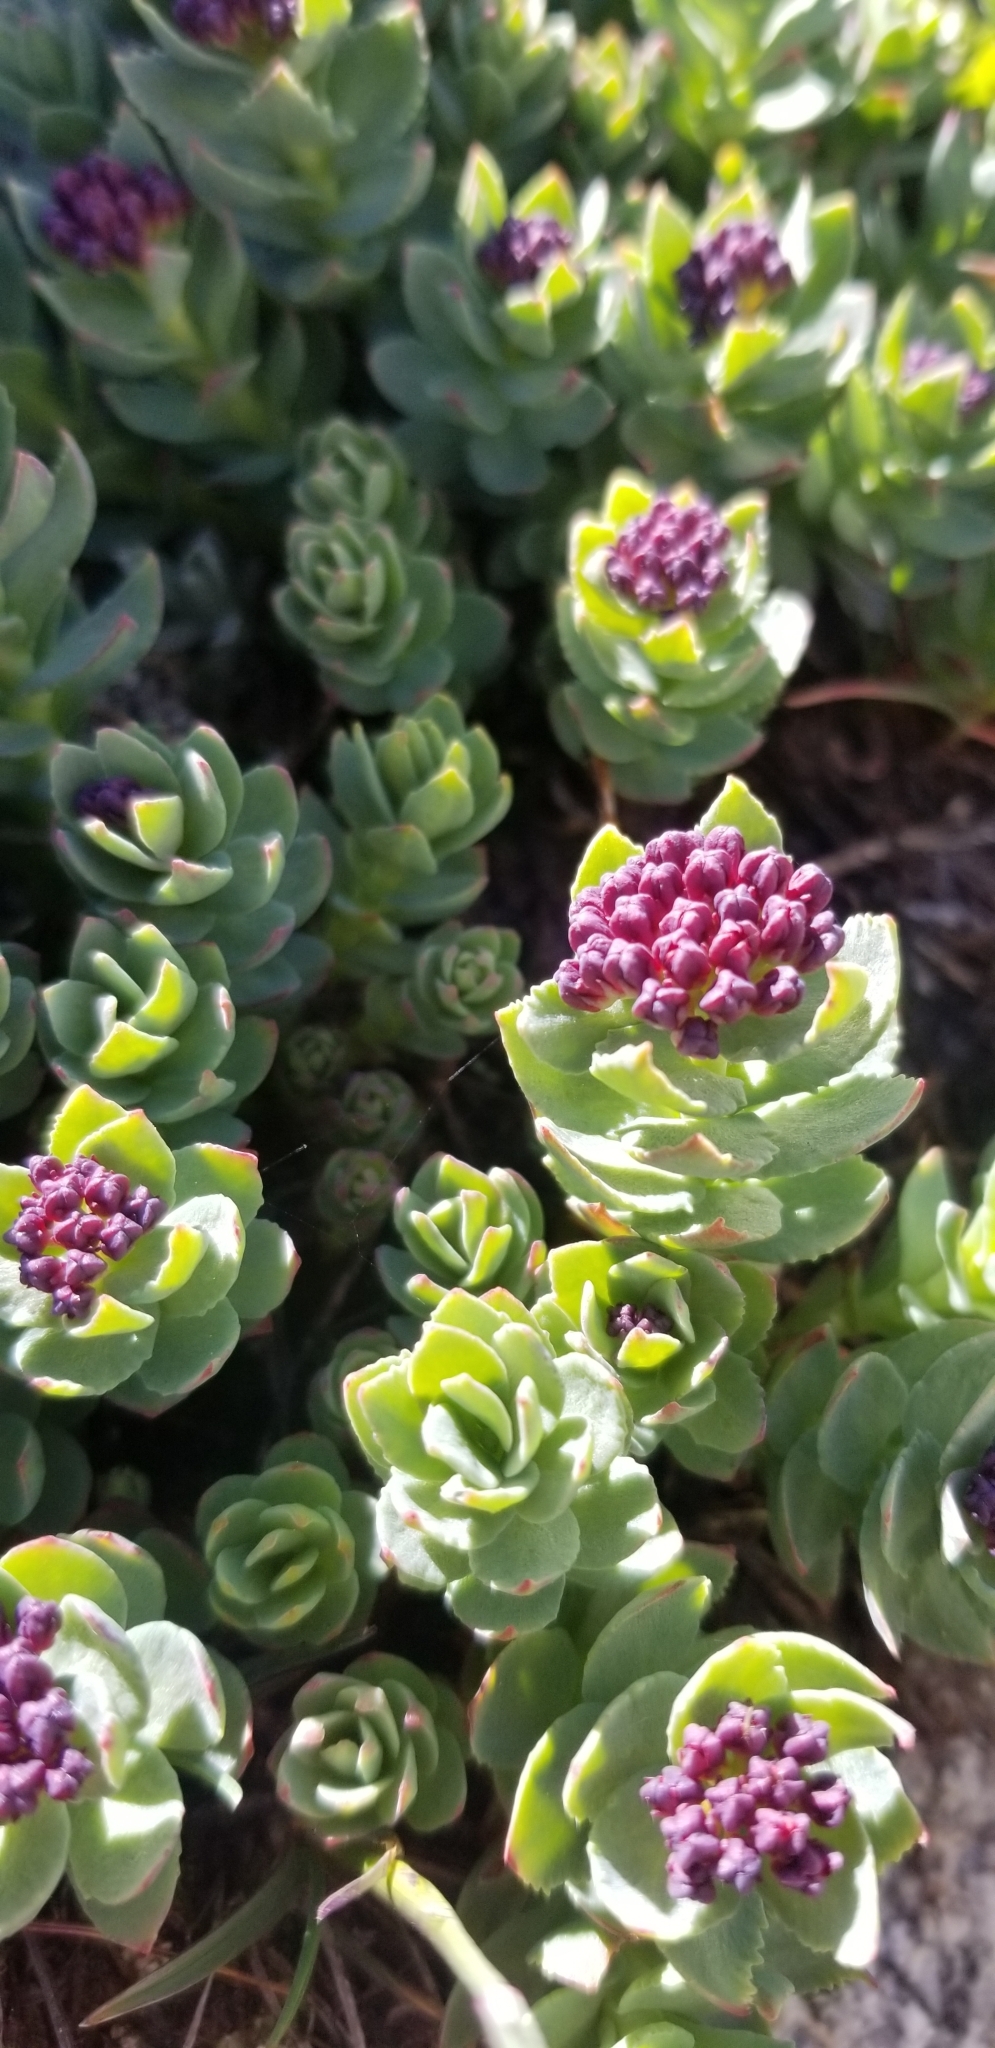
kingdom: Plantae
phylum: Tracheophyta
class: Magnoliopsida
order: Saxifragales
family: Crassulaceae
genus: Rhodiola
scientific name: Rhodiola integrifolia
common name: Western roseroot
